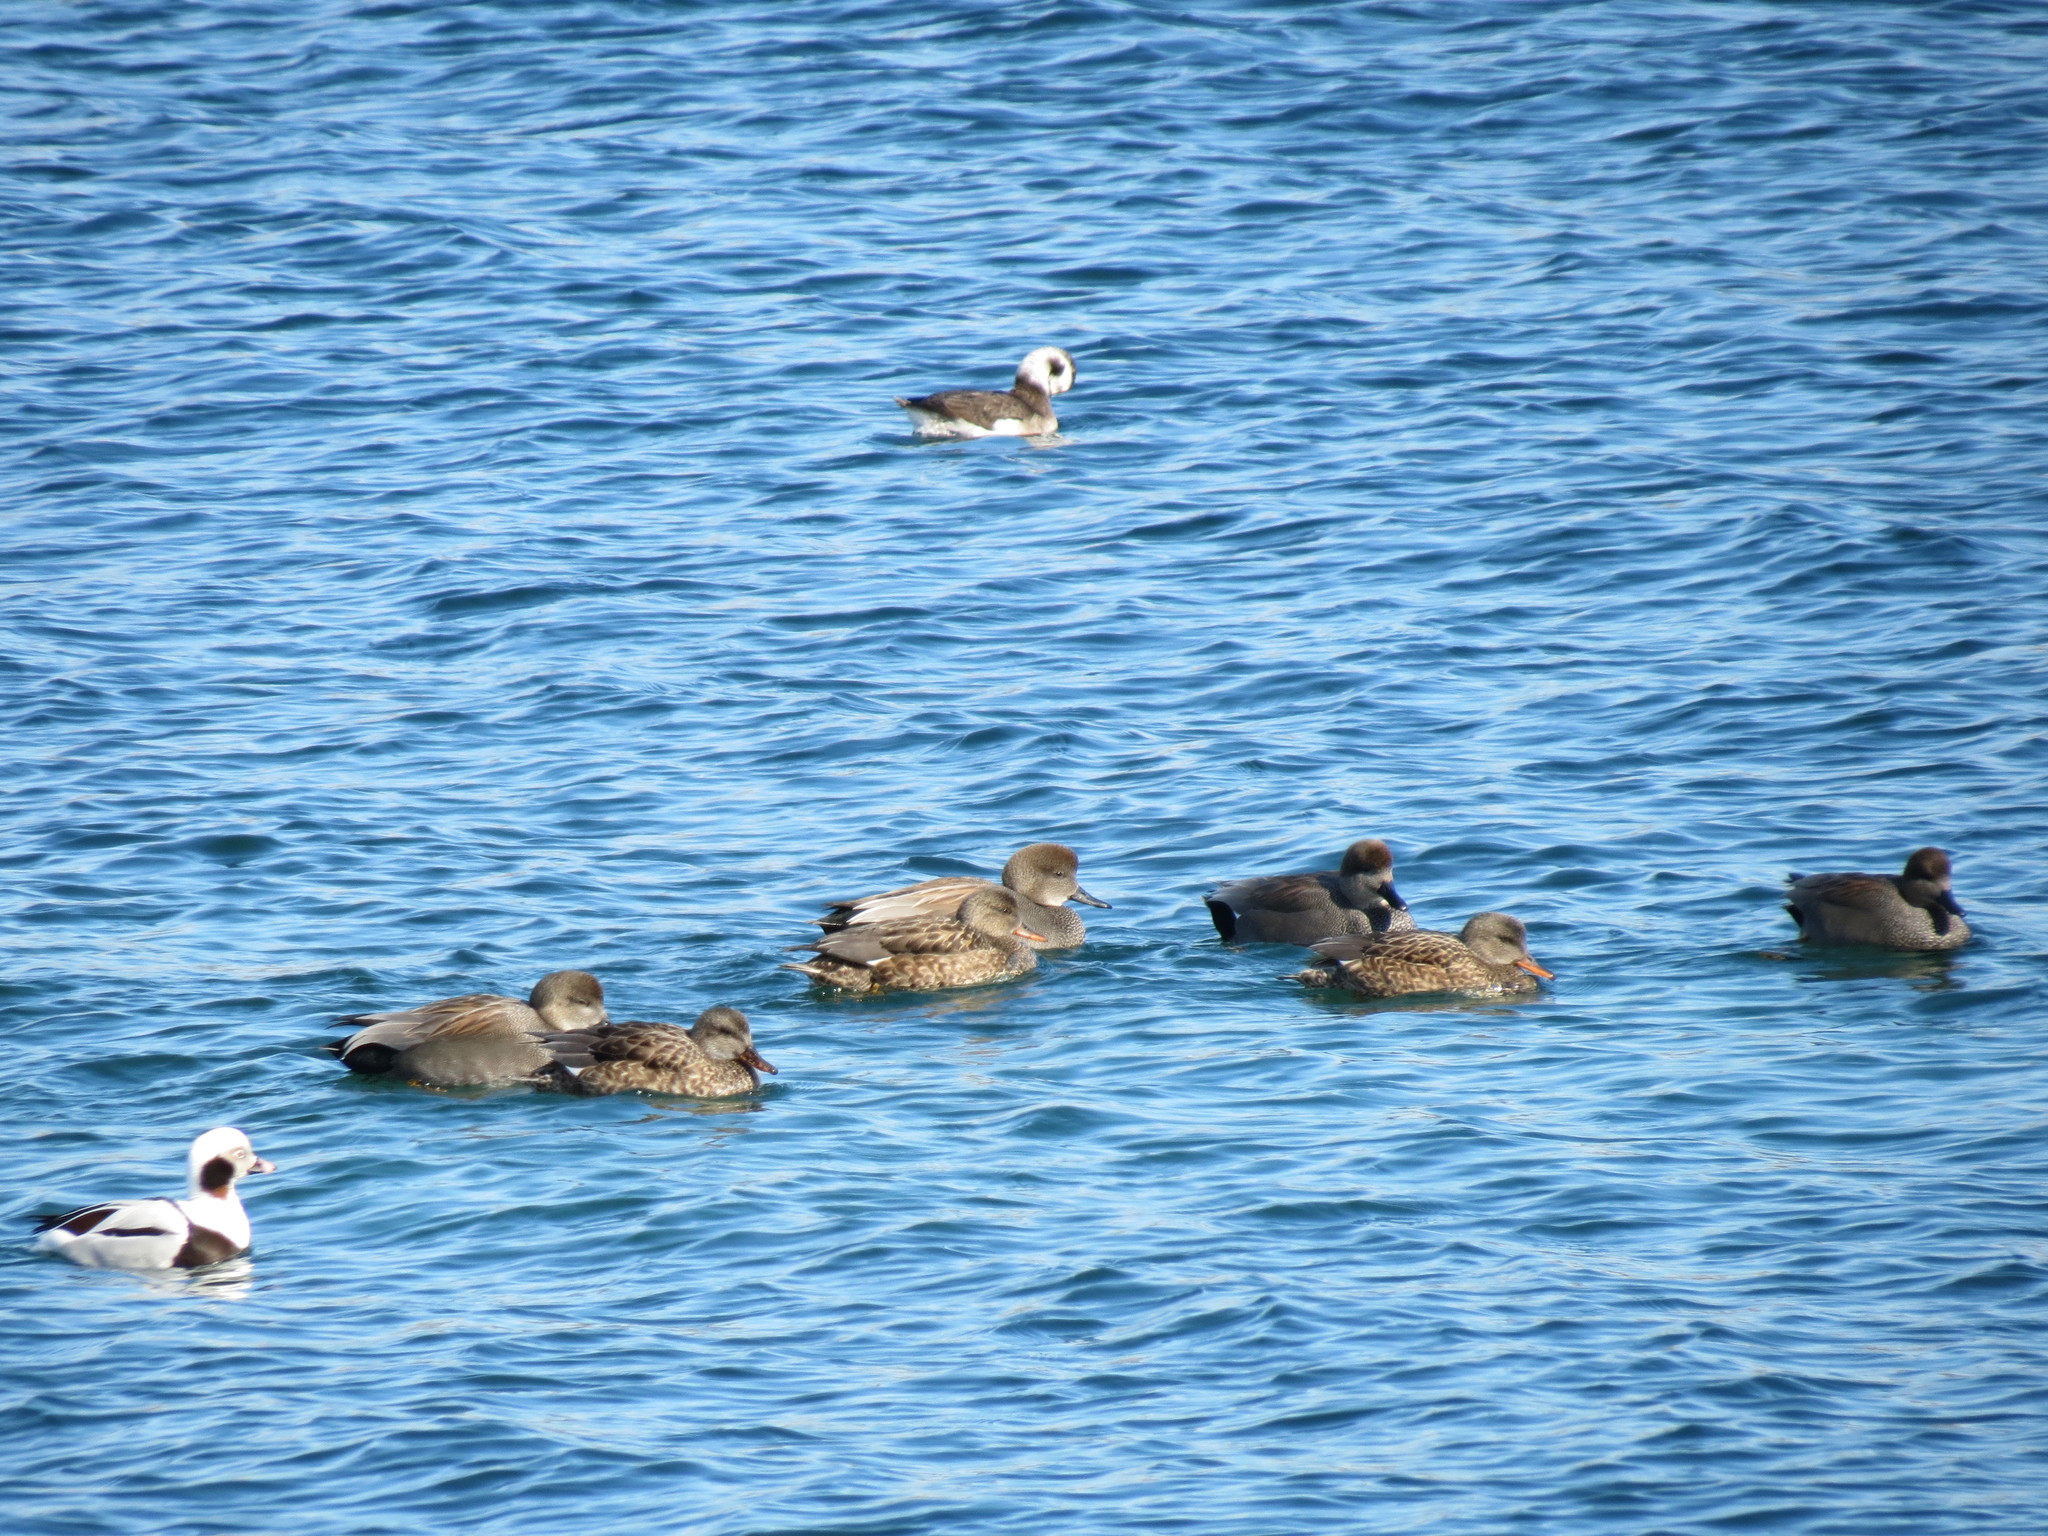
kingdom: Animalia
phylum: Chordata
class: Aves
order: Anseriformes
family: Anatidae
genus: Mareca
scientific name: Mareca strepera
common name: Gadwall
